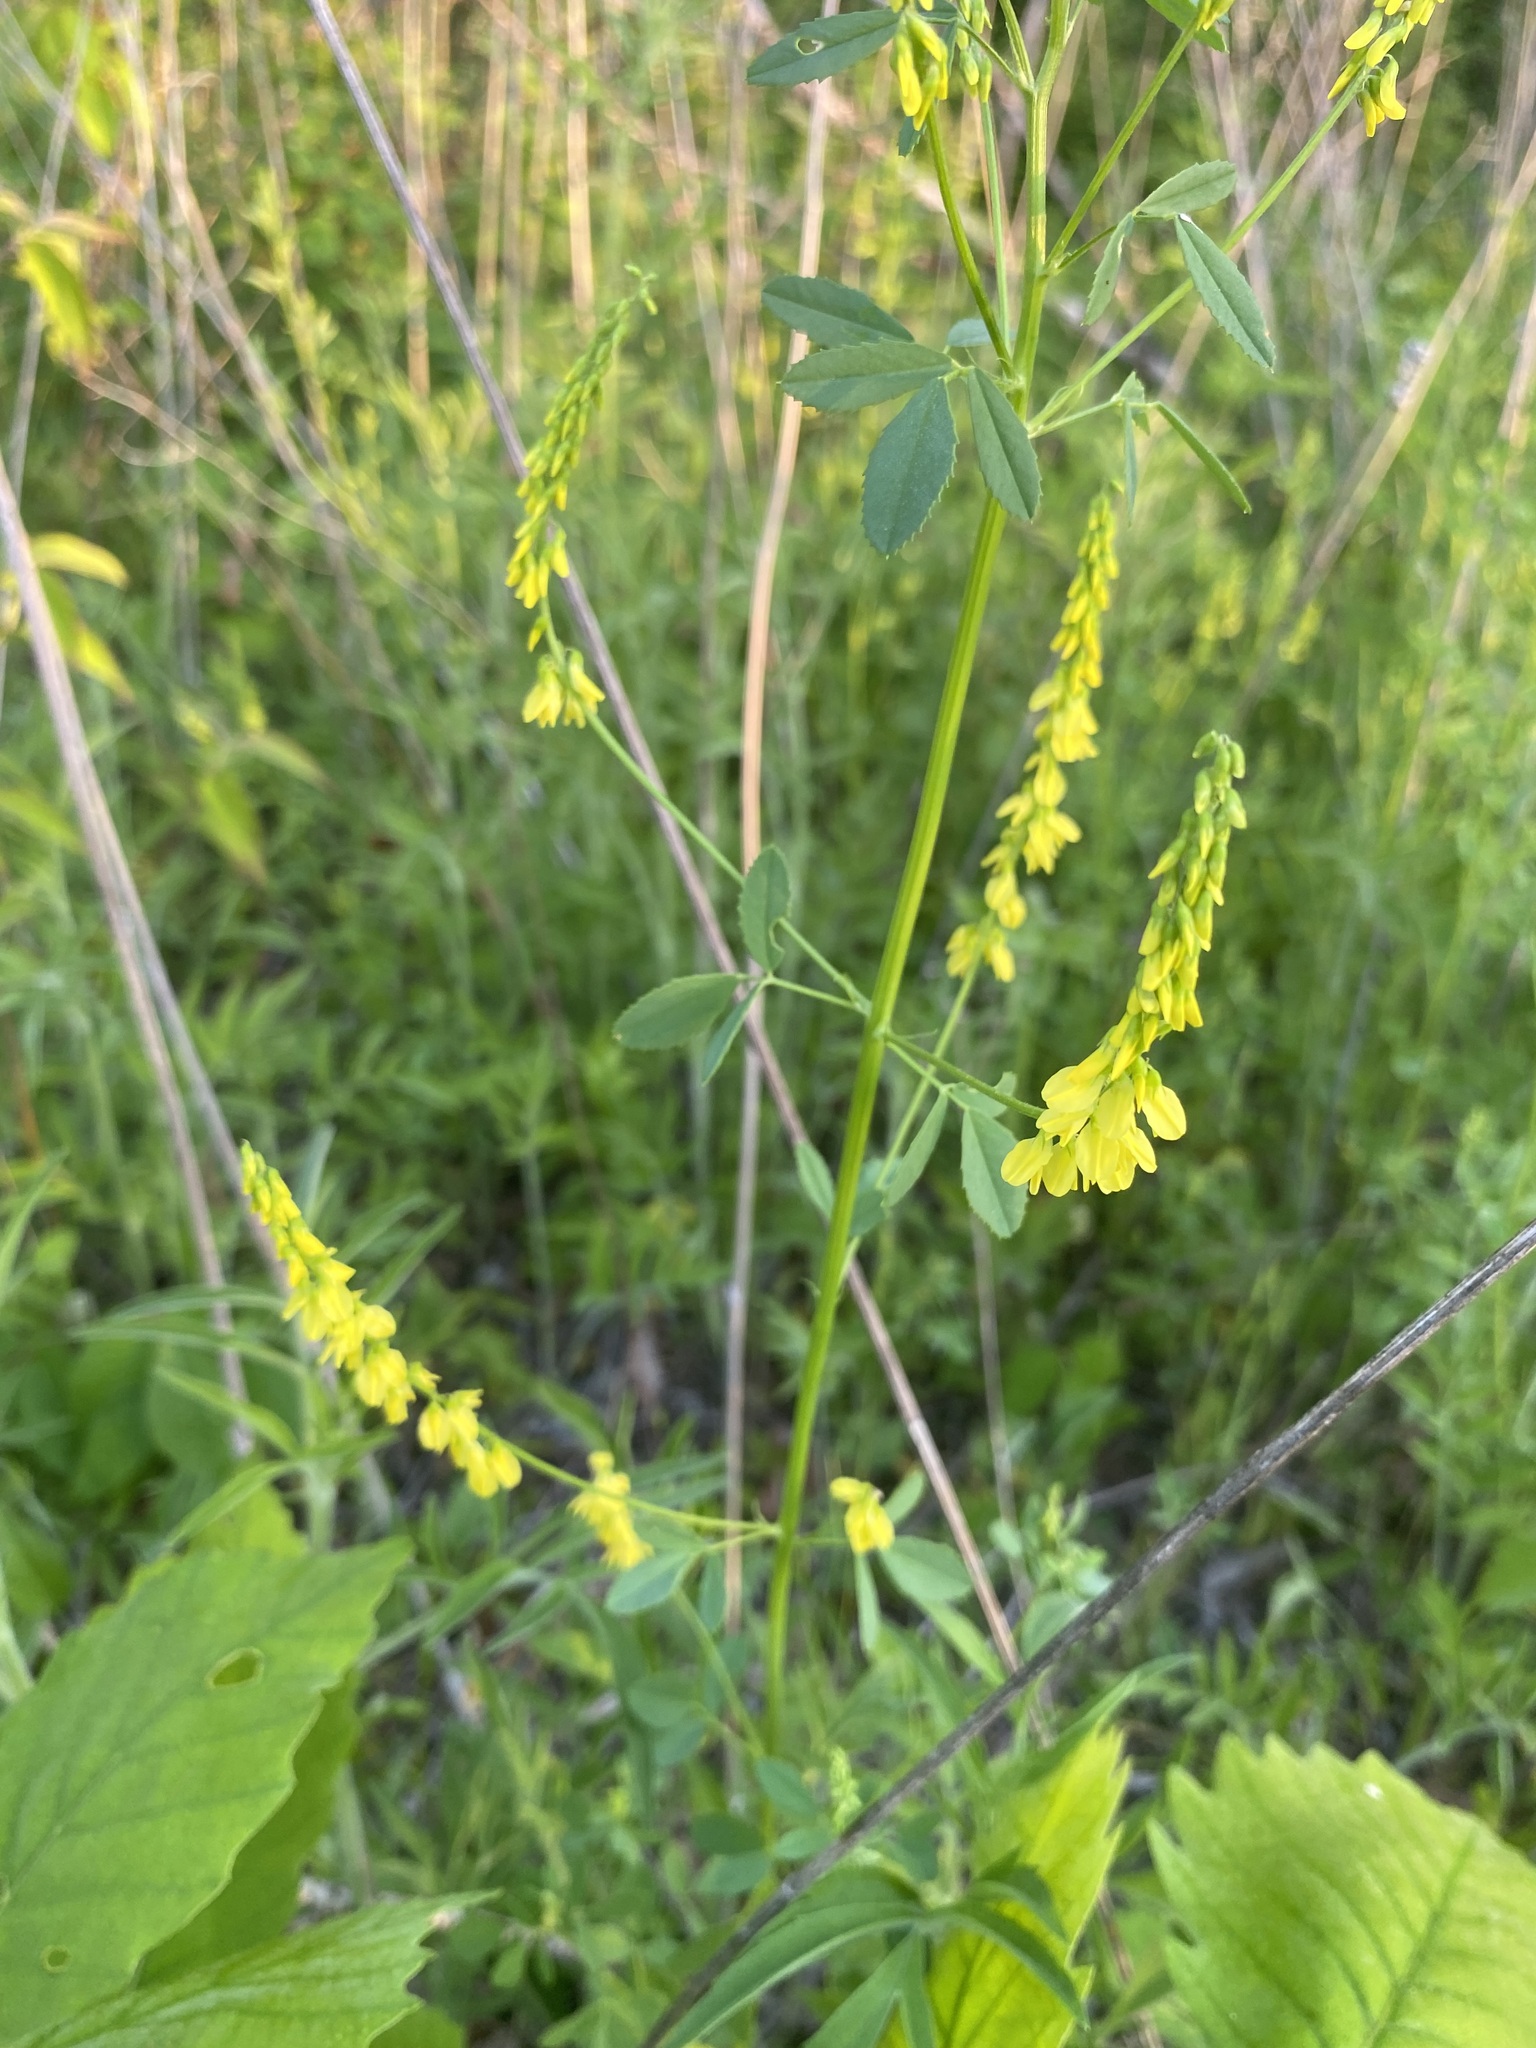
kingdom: Plantae
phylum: Tracheophyta
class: Magnoliopsida
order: Fabales
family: Fabaceae
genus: Melilotus
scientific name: Melilotus officinalis
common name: Sweetclover
